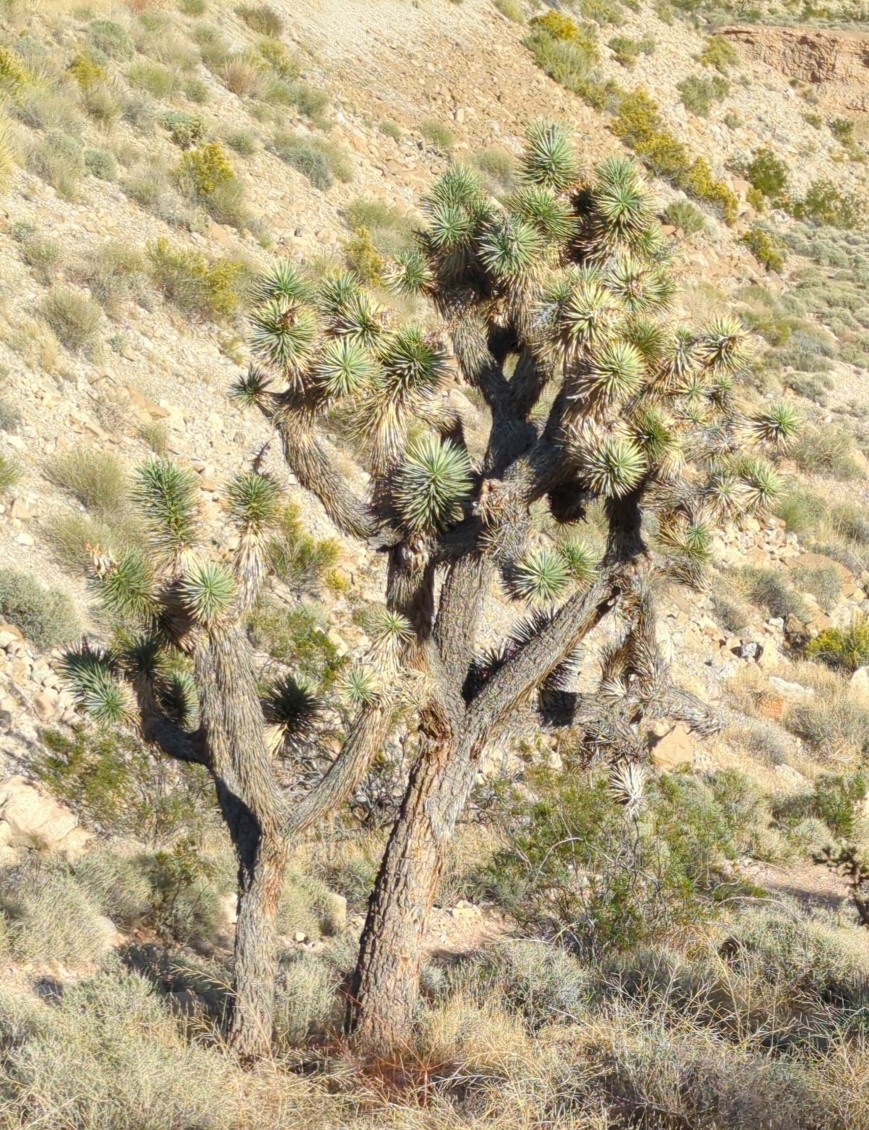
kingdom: Plantae
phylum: Tracheophyta
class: Liliopsida
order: Asparagales
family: Asparagaceae
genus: Yucca
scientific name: Yucca brevifolia
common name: Joshua tree
